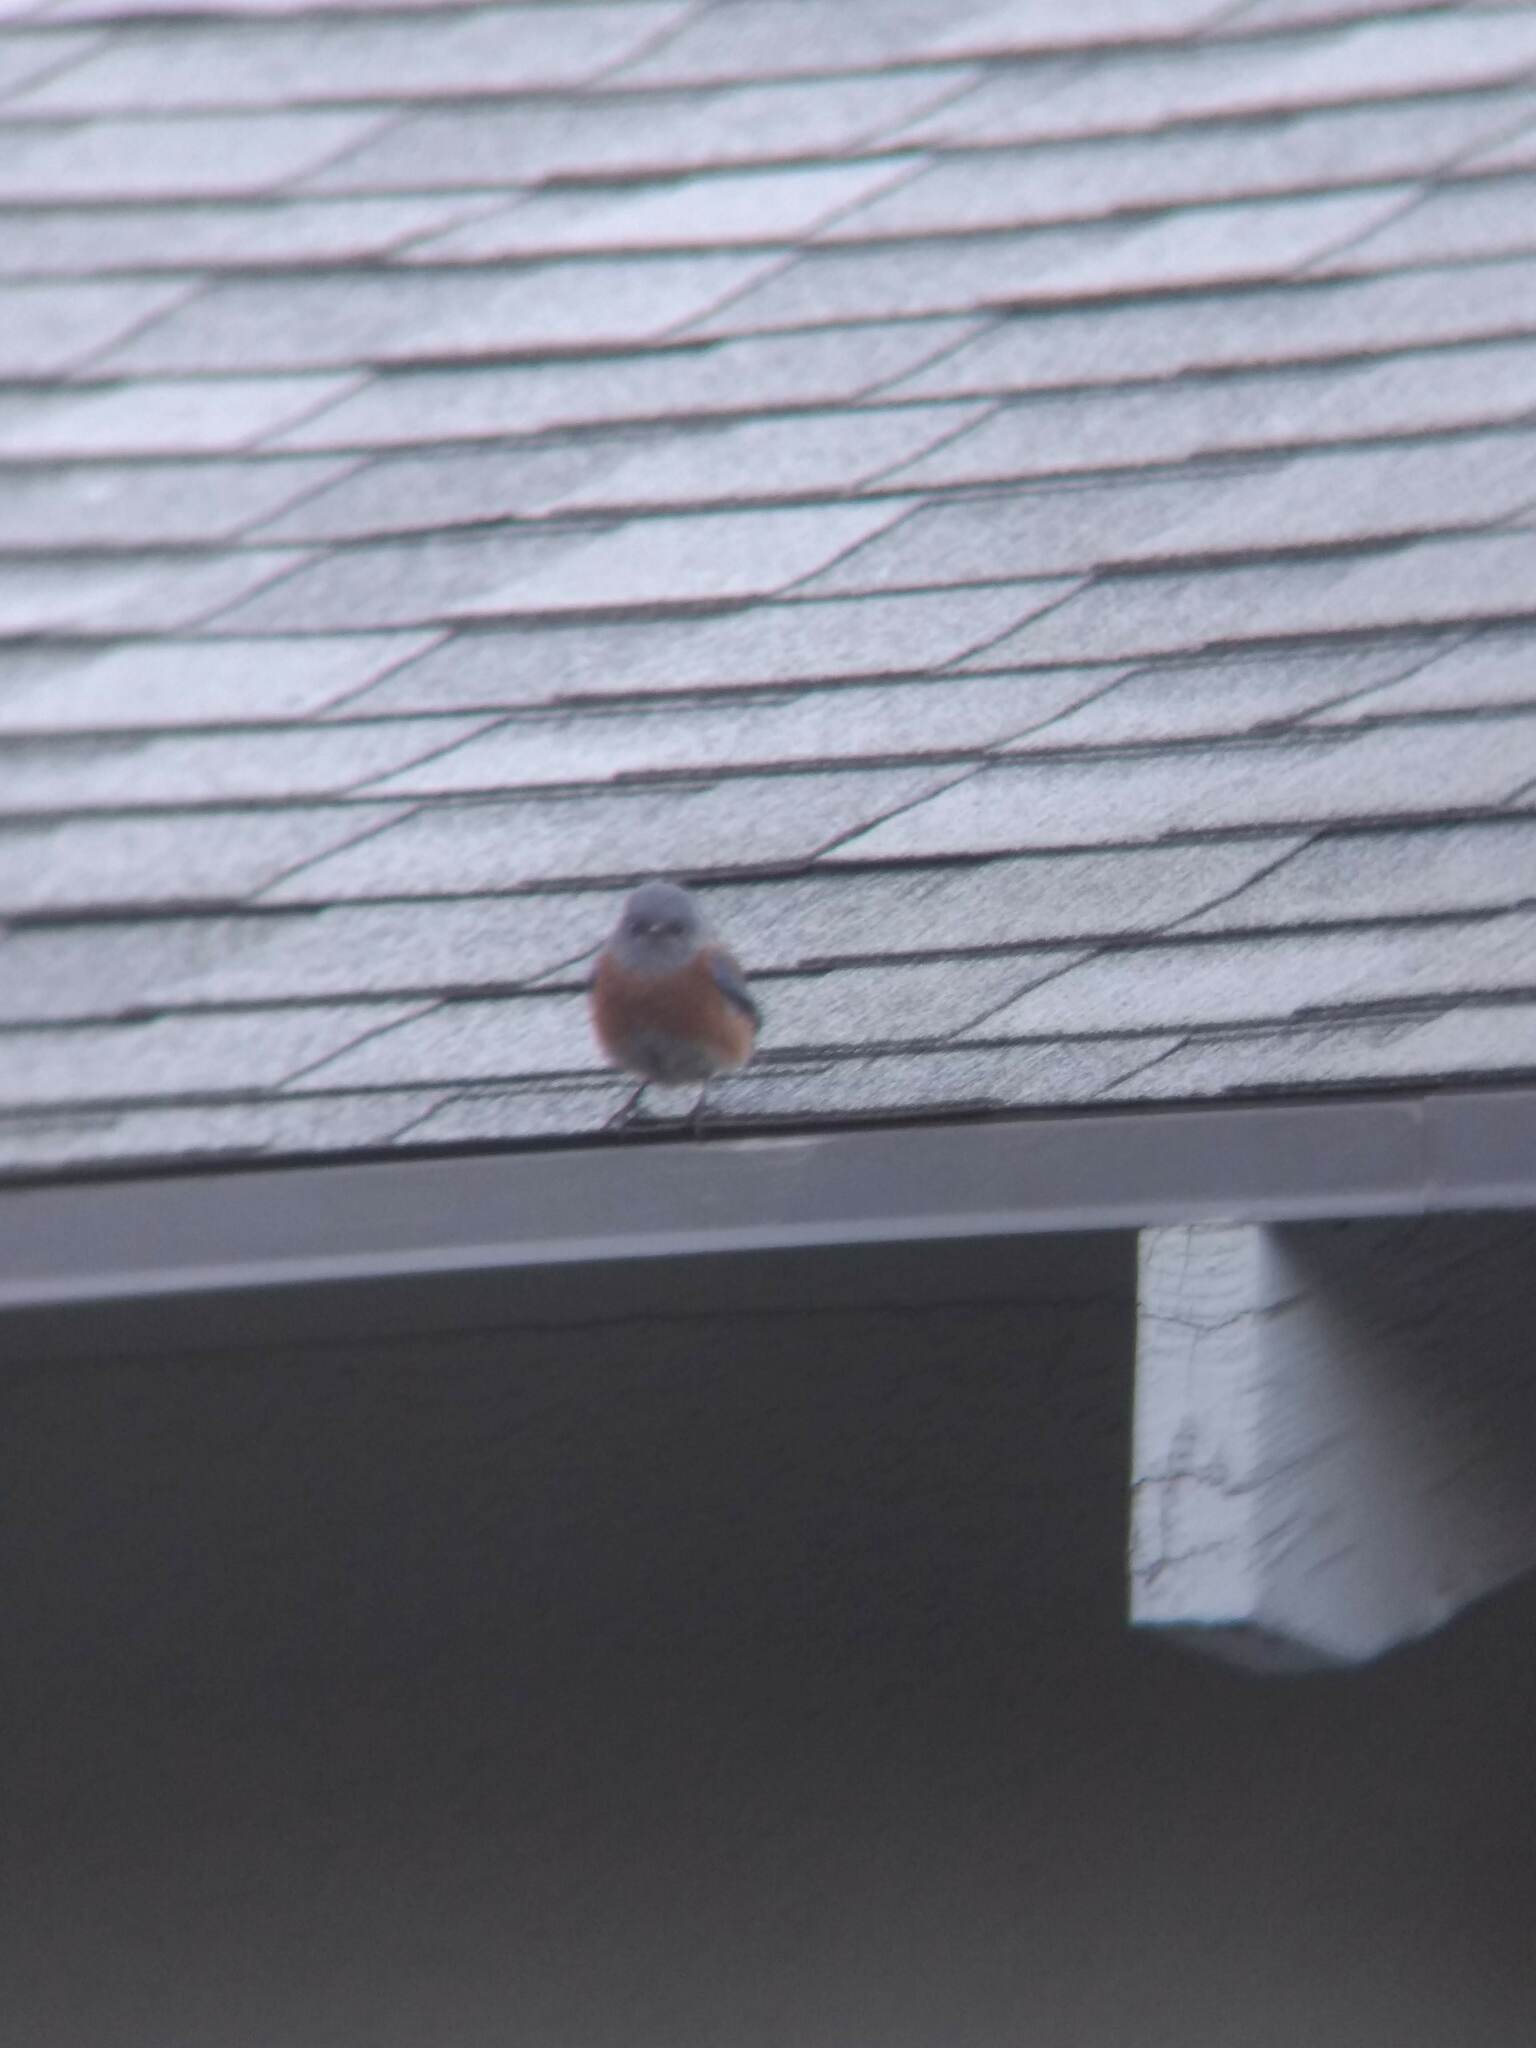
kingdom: Animalia
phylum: Chordata
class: Aves
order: Passeriformes
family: Turdidae
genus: Sialia
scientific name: Sialia mexicana
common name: Western bluebird
